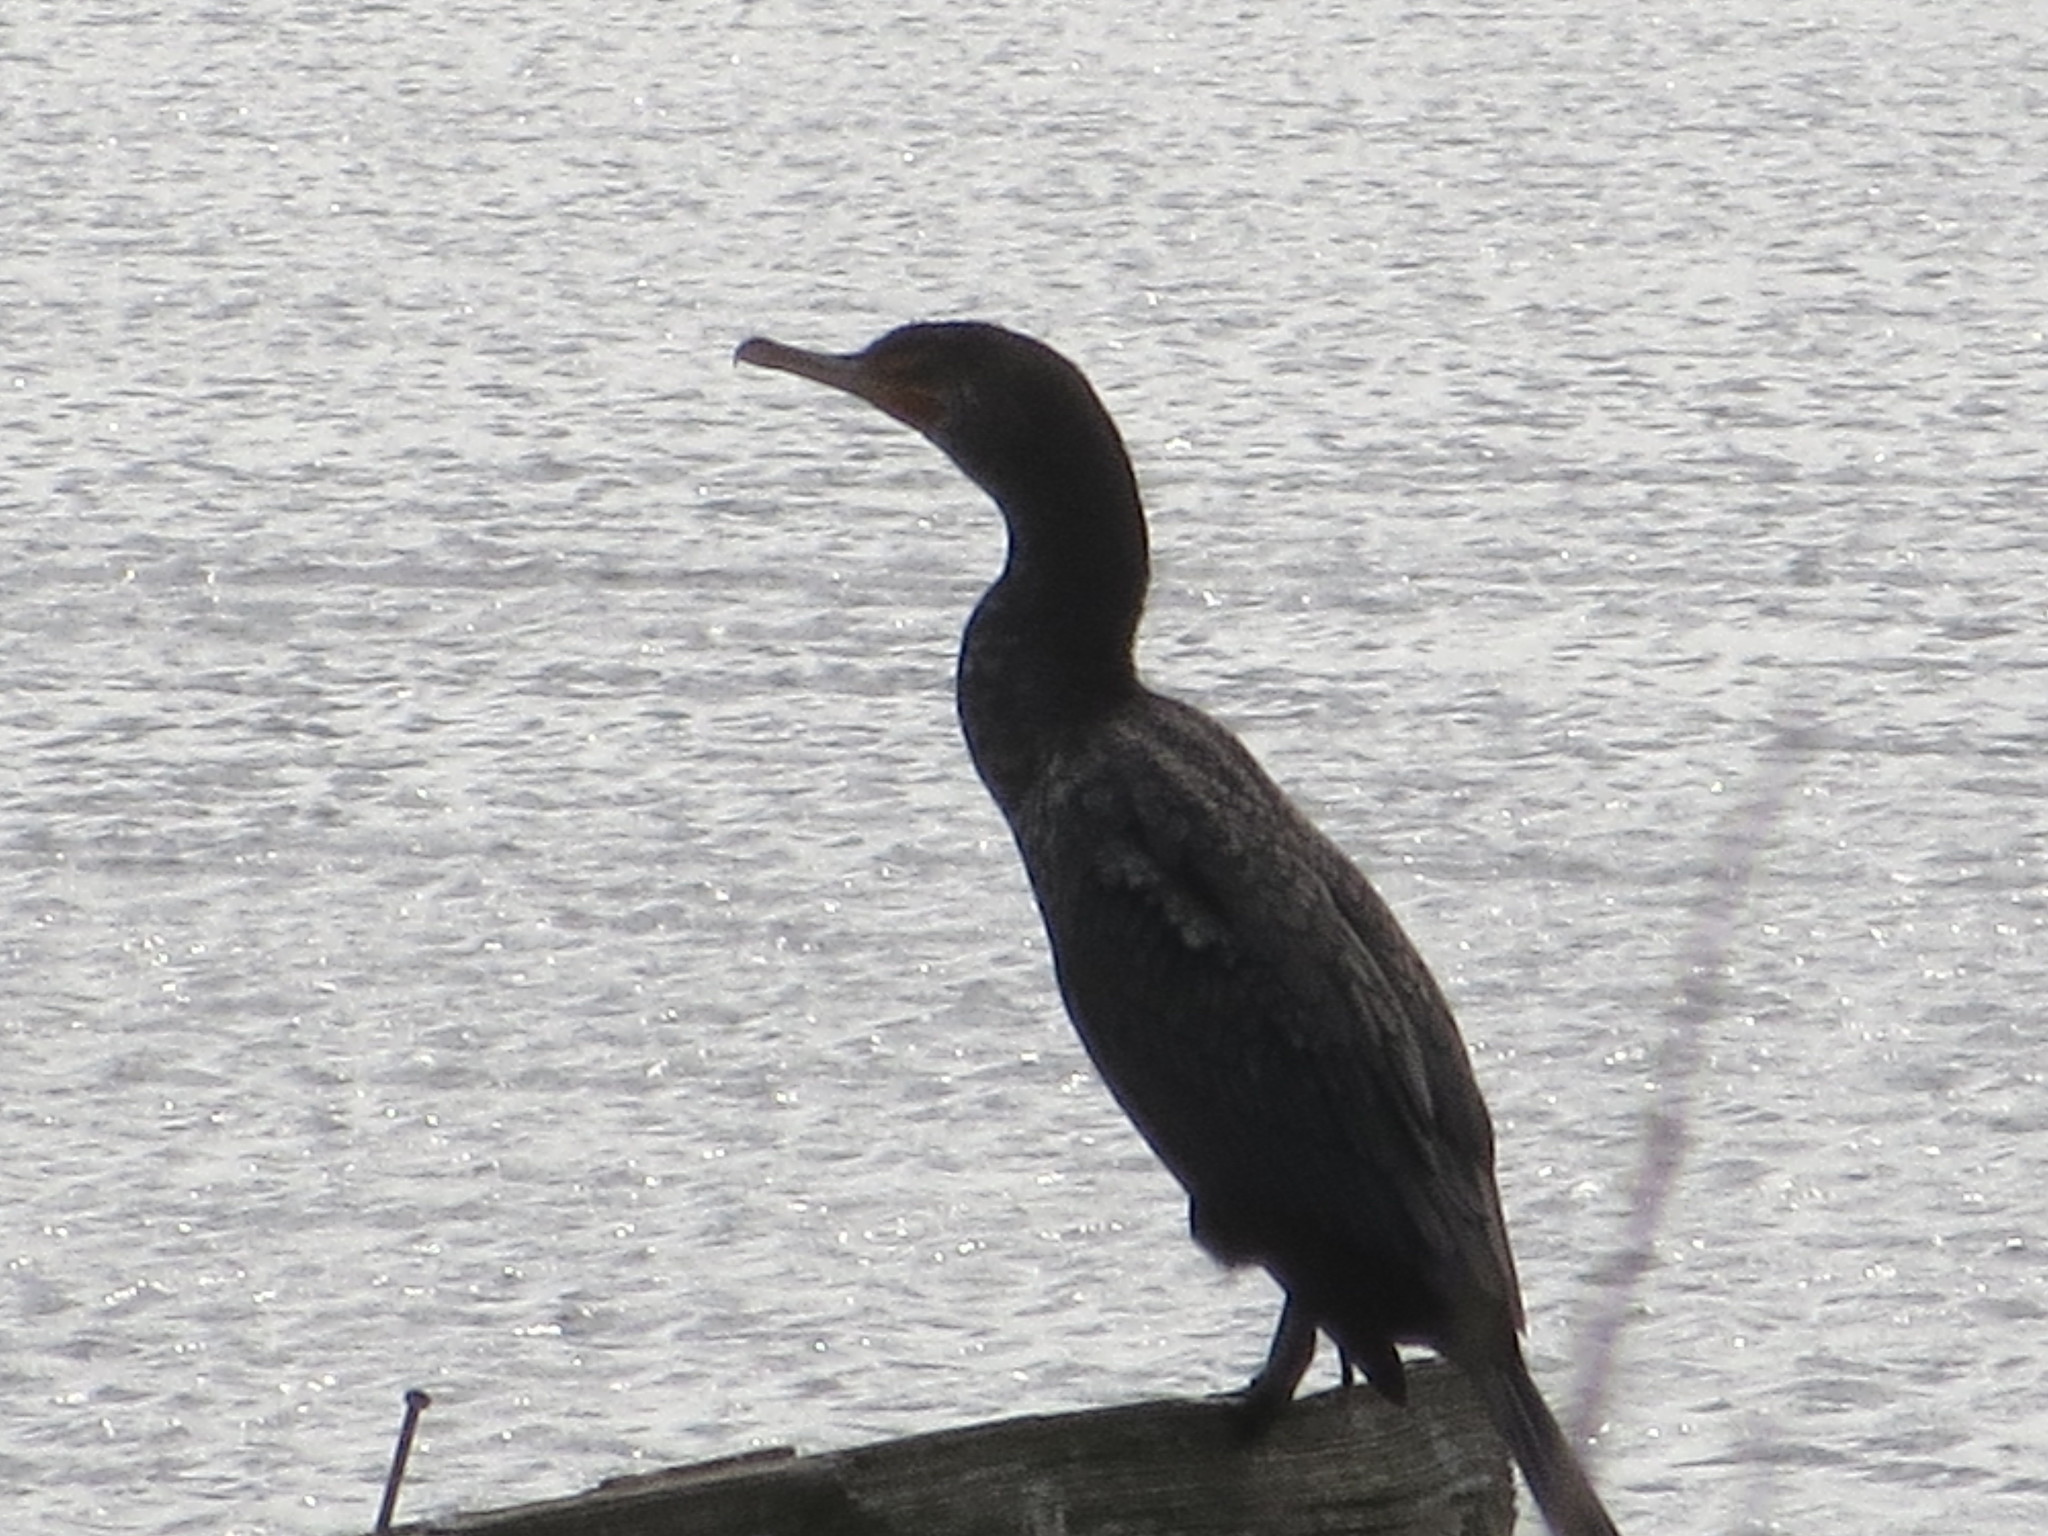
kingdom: Animalia
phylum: Chordata
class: Aves
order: Suliformes
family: Phalacrocoracidae
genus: Phalacrocorax
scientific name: Phalacrocorax auritus
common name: Double-crested cormorant
